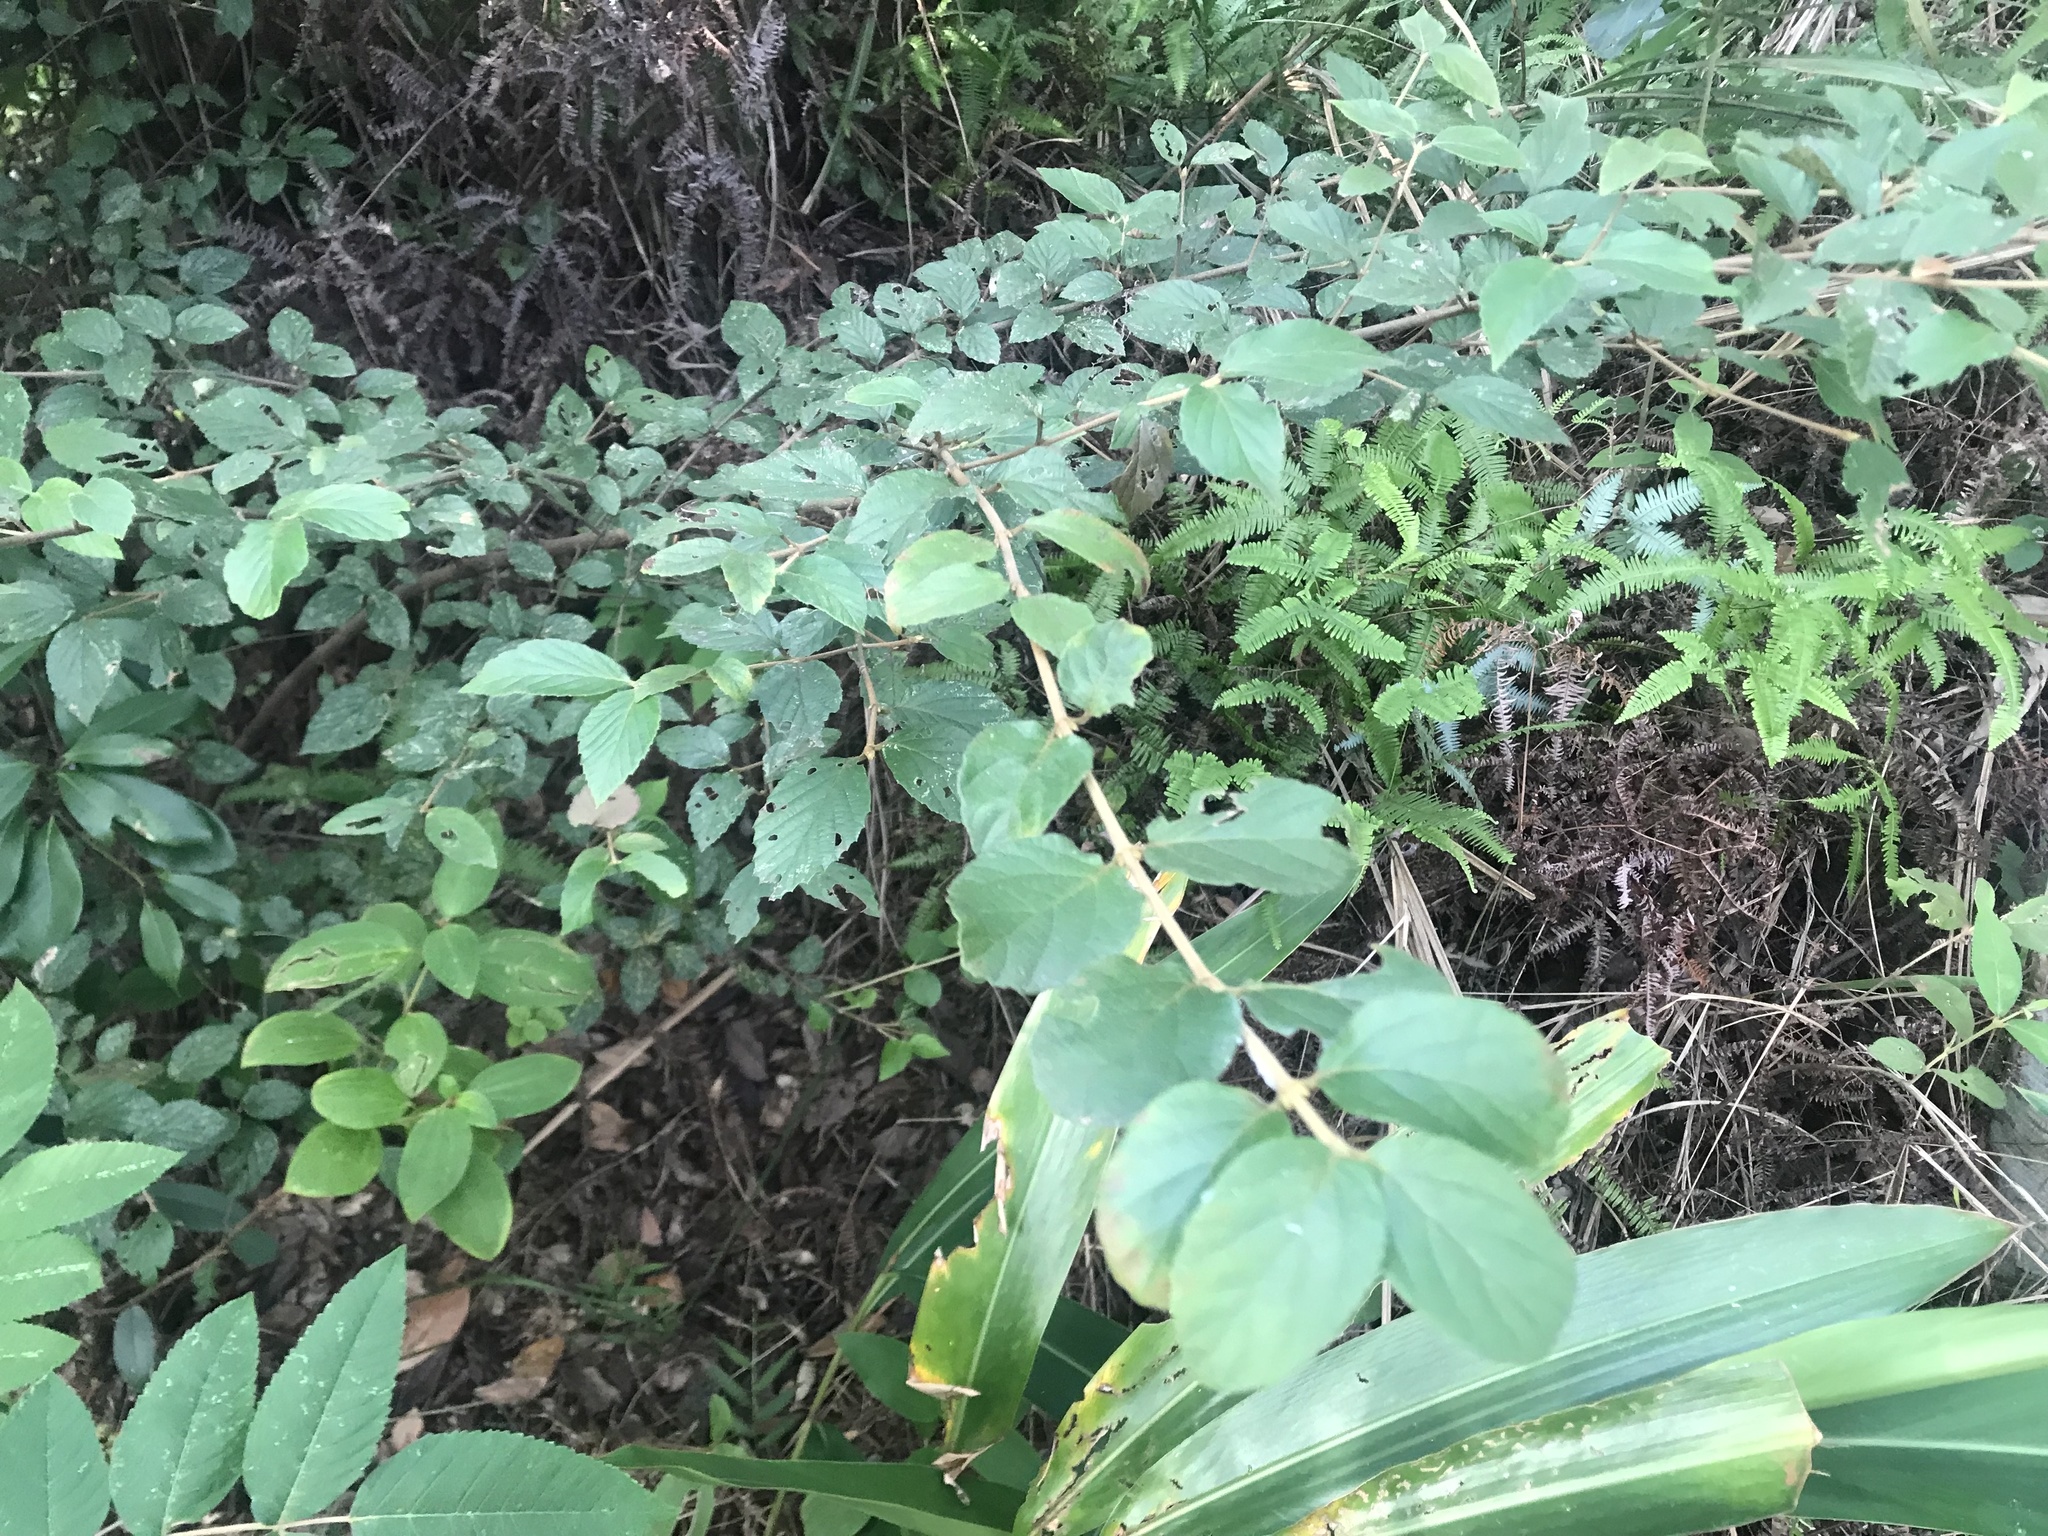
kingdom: Plantae
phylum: Tracheophyta
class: Magnoliopsida
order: Dipsacales
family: Viburnaceae
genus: Viburnum
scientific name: Viburnum luzonicum
